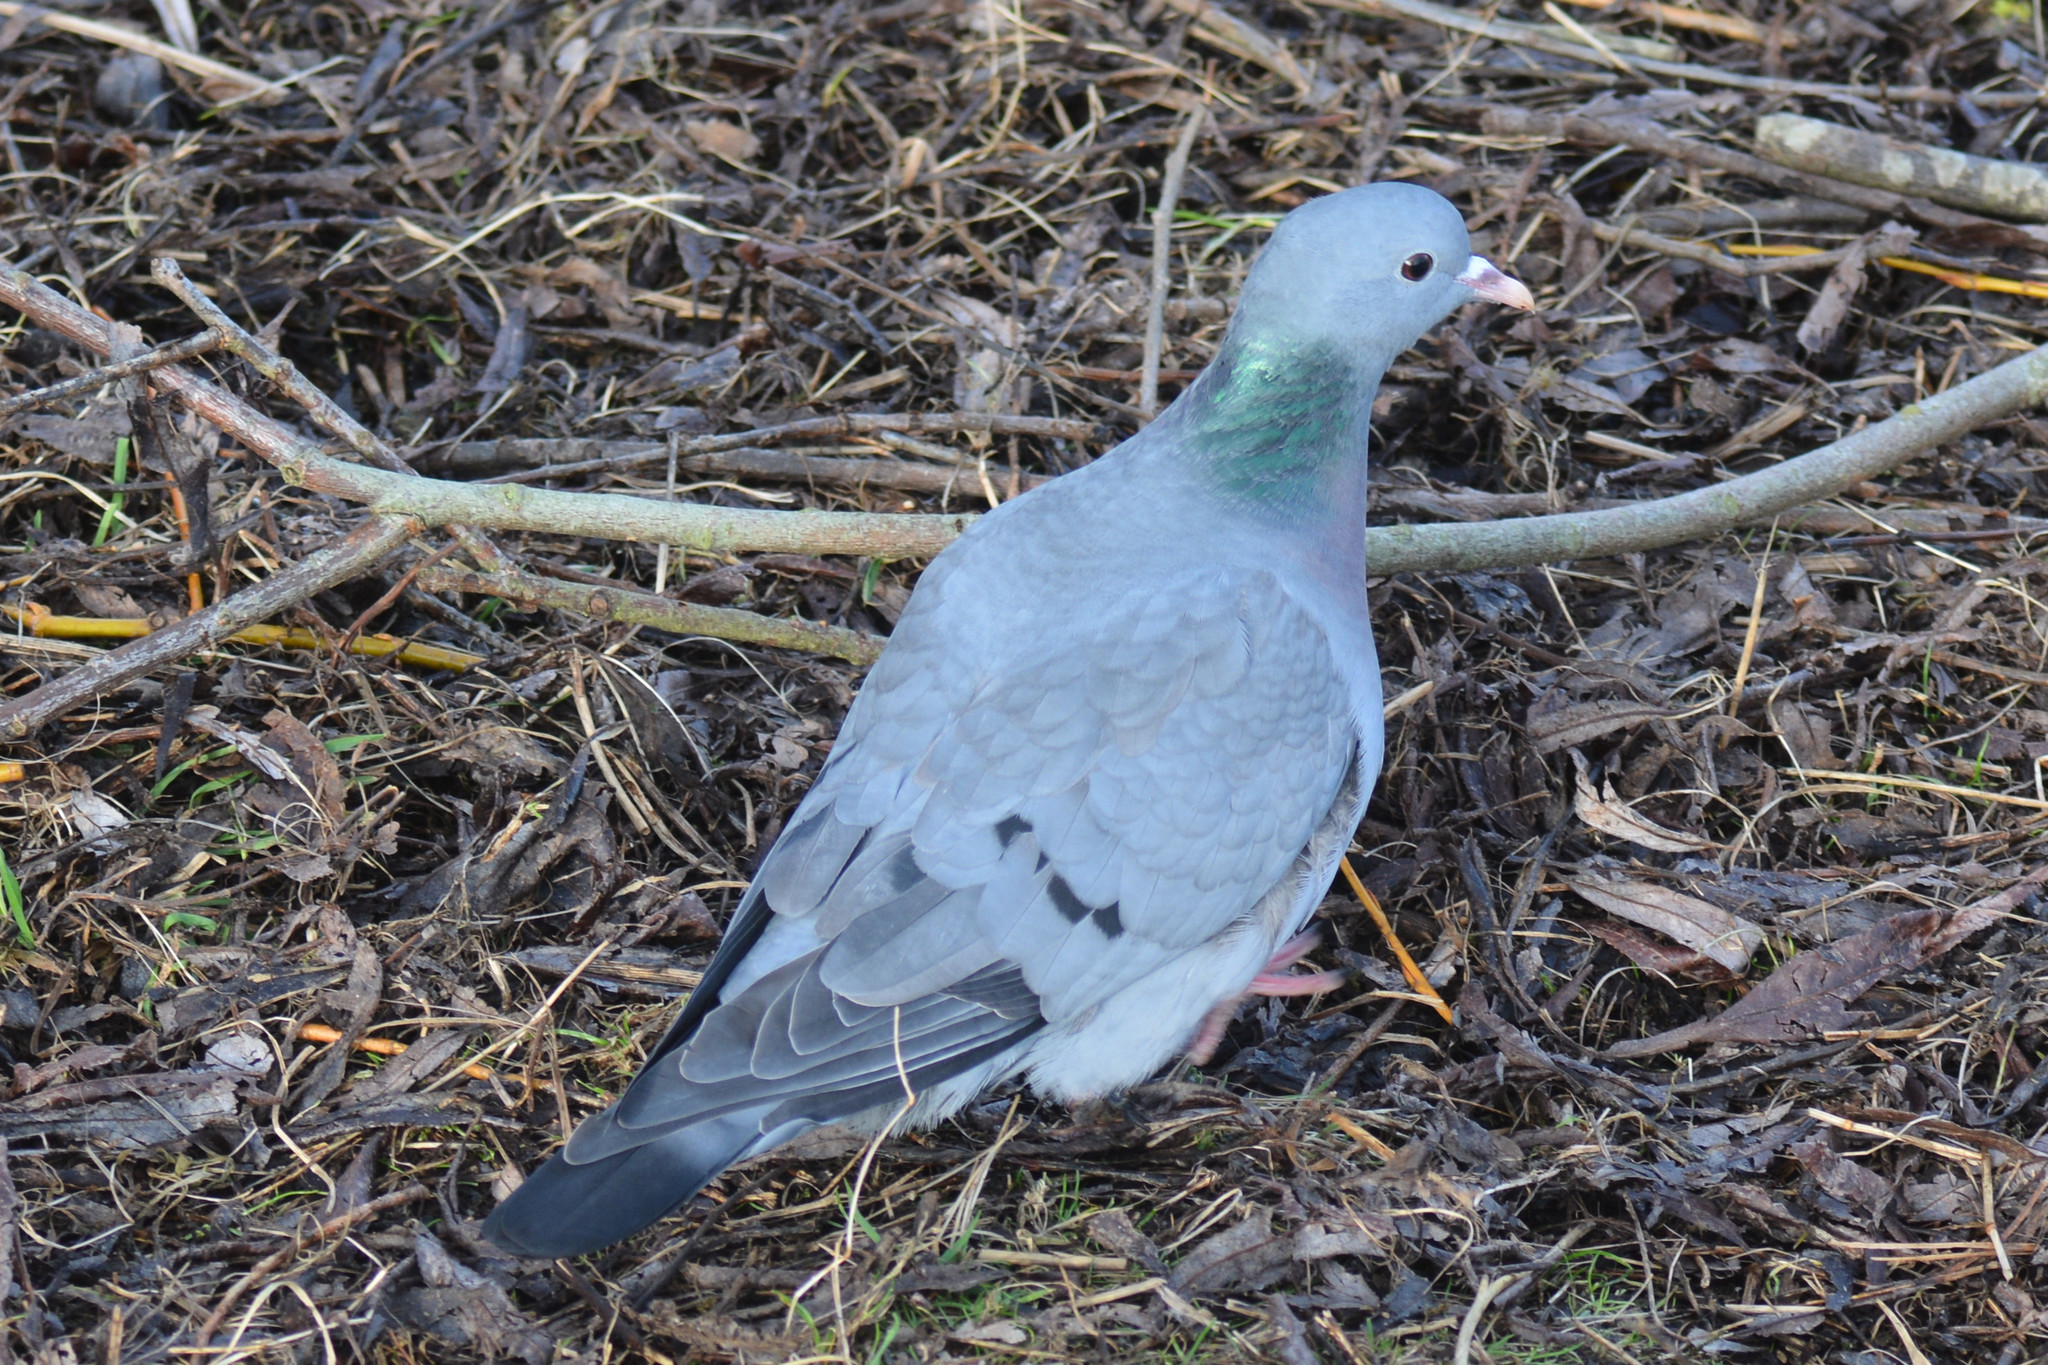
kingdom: Animalia
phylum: Chordata
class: Aves
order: Columbiformes
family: Columbidae
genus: Columba
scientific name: Columba oenas
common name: Stock dove
